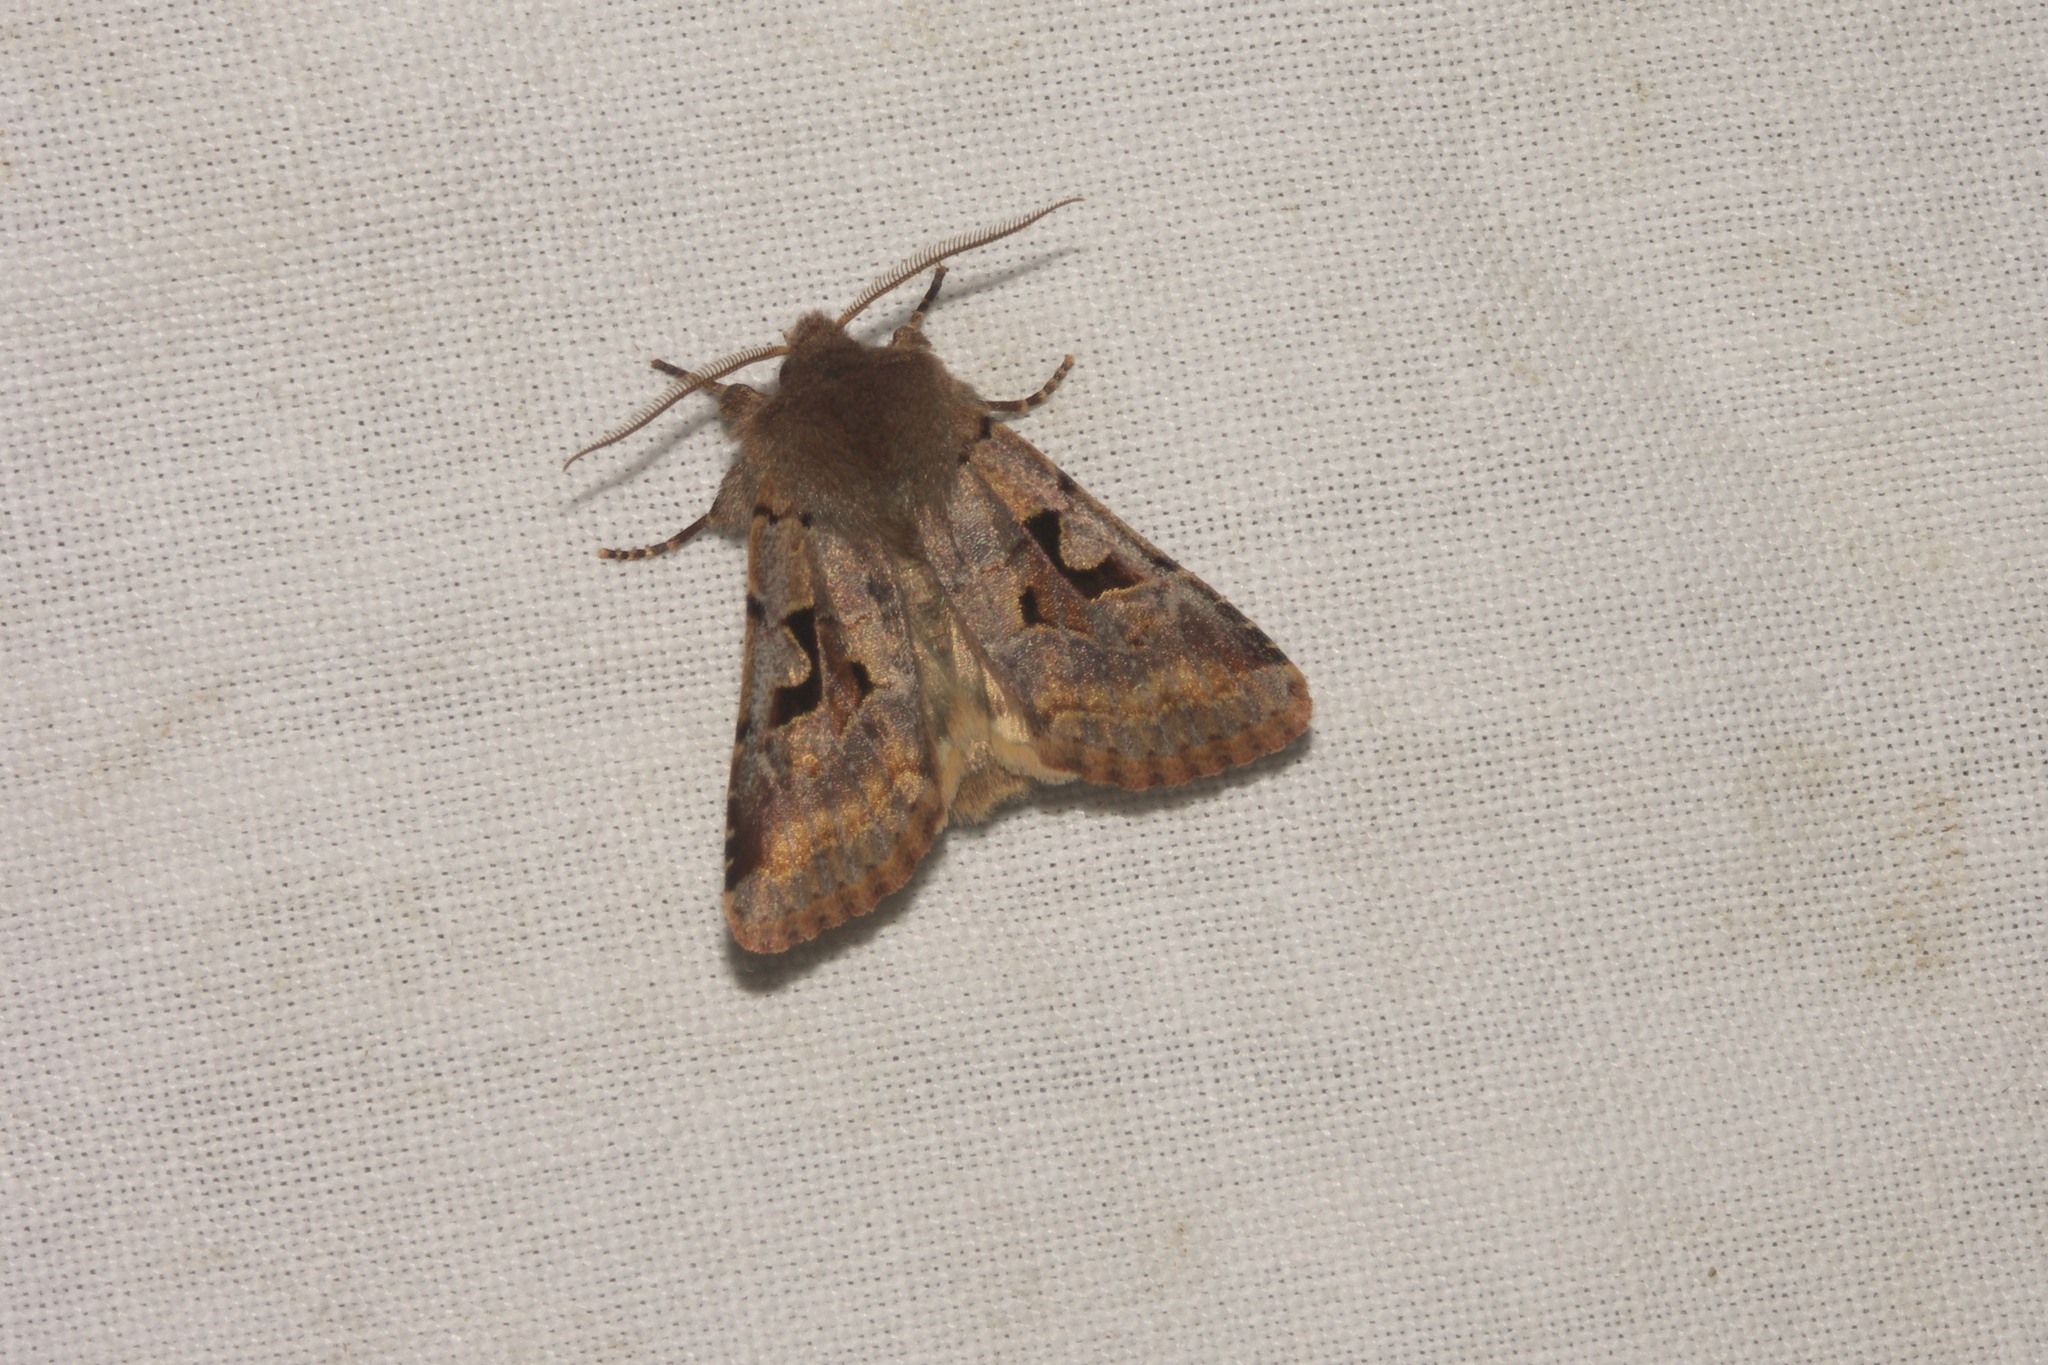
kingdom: Animalia
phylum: Arthropoda
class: Insecta
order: Lepidoptera
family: Noctuidae
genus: Orthosia
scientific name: Orthosia gothica
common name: Hebrew character
